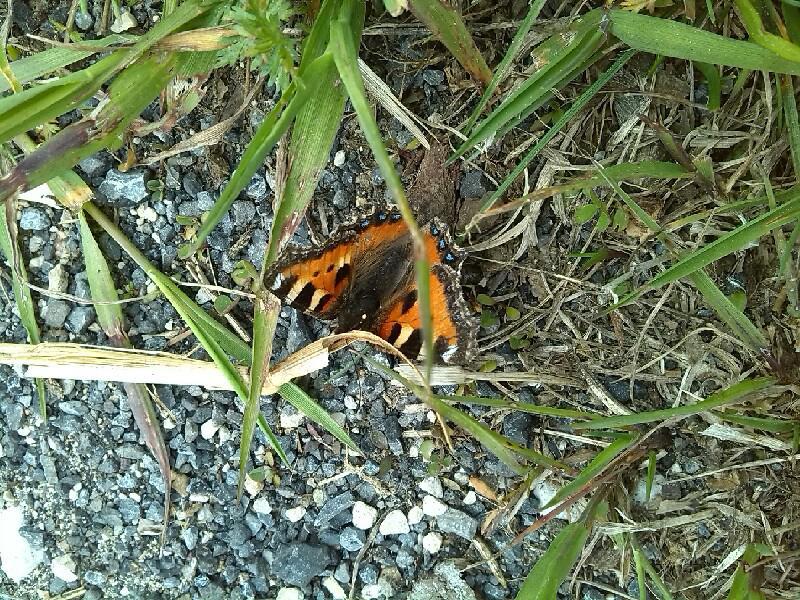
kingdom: Animalia
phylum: Arthropoda
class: Insecta
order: Lepidoptera
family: Nymphalidae
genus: Aglais
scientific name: Aglais urticae
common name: Small tortoiseshell
